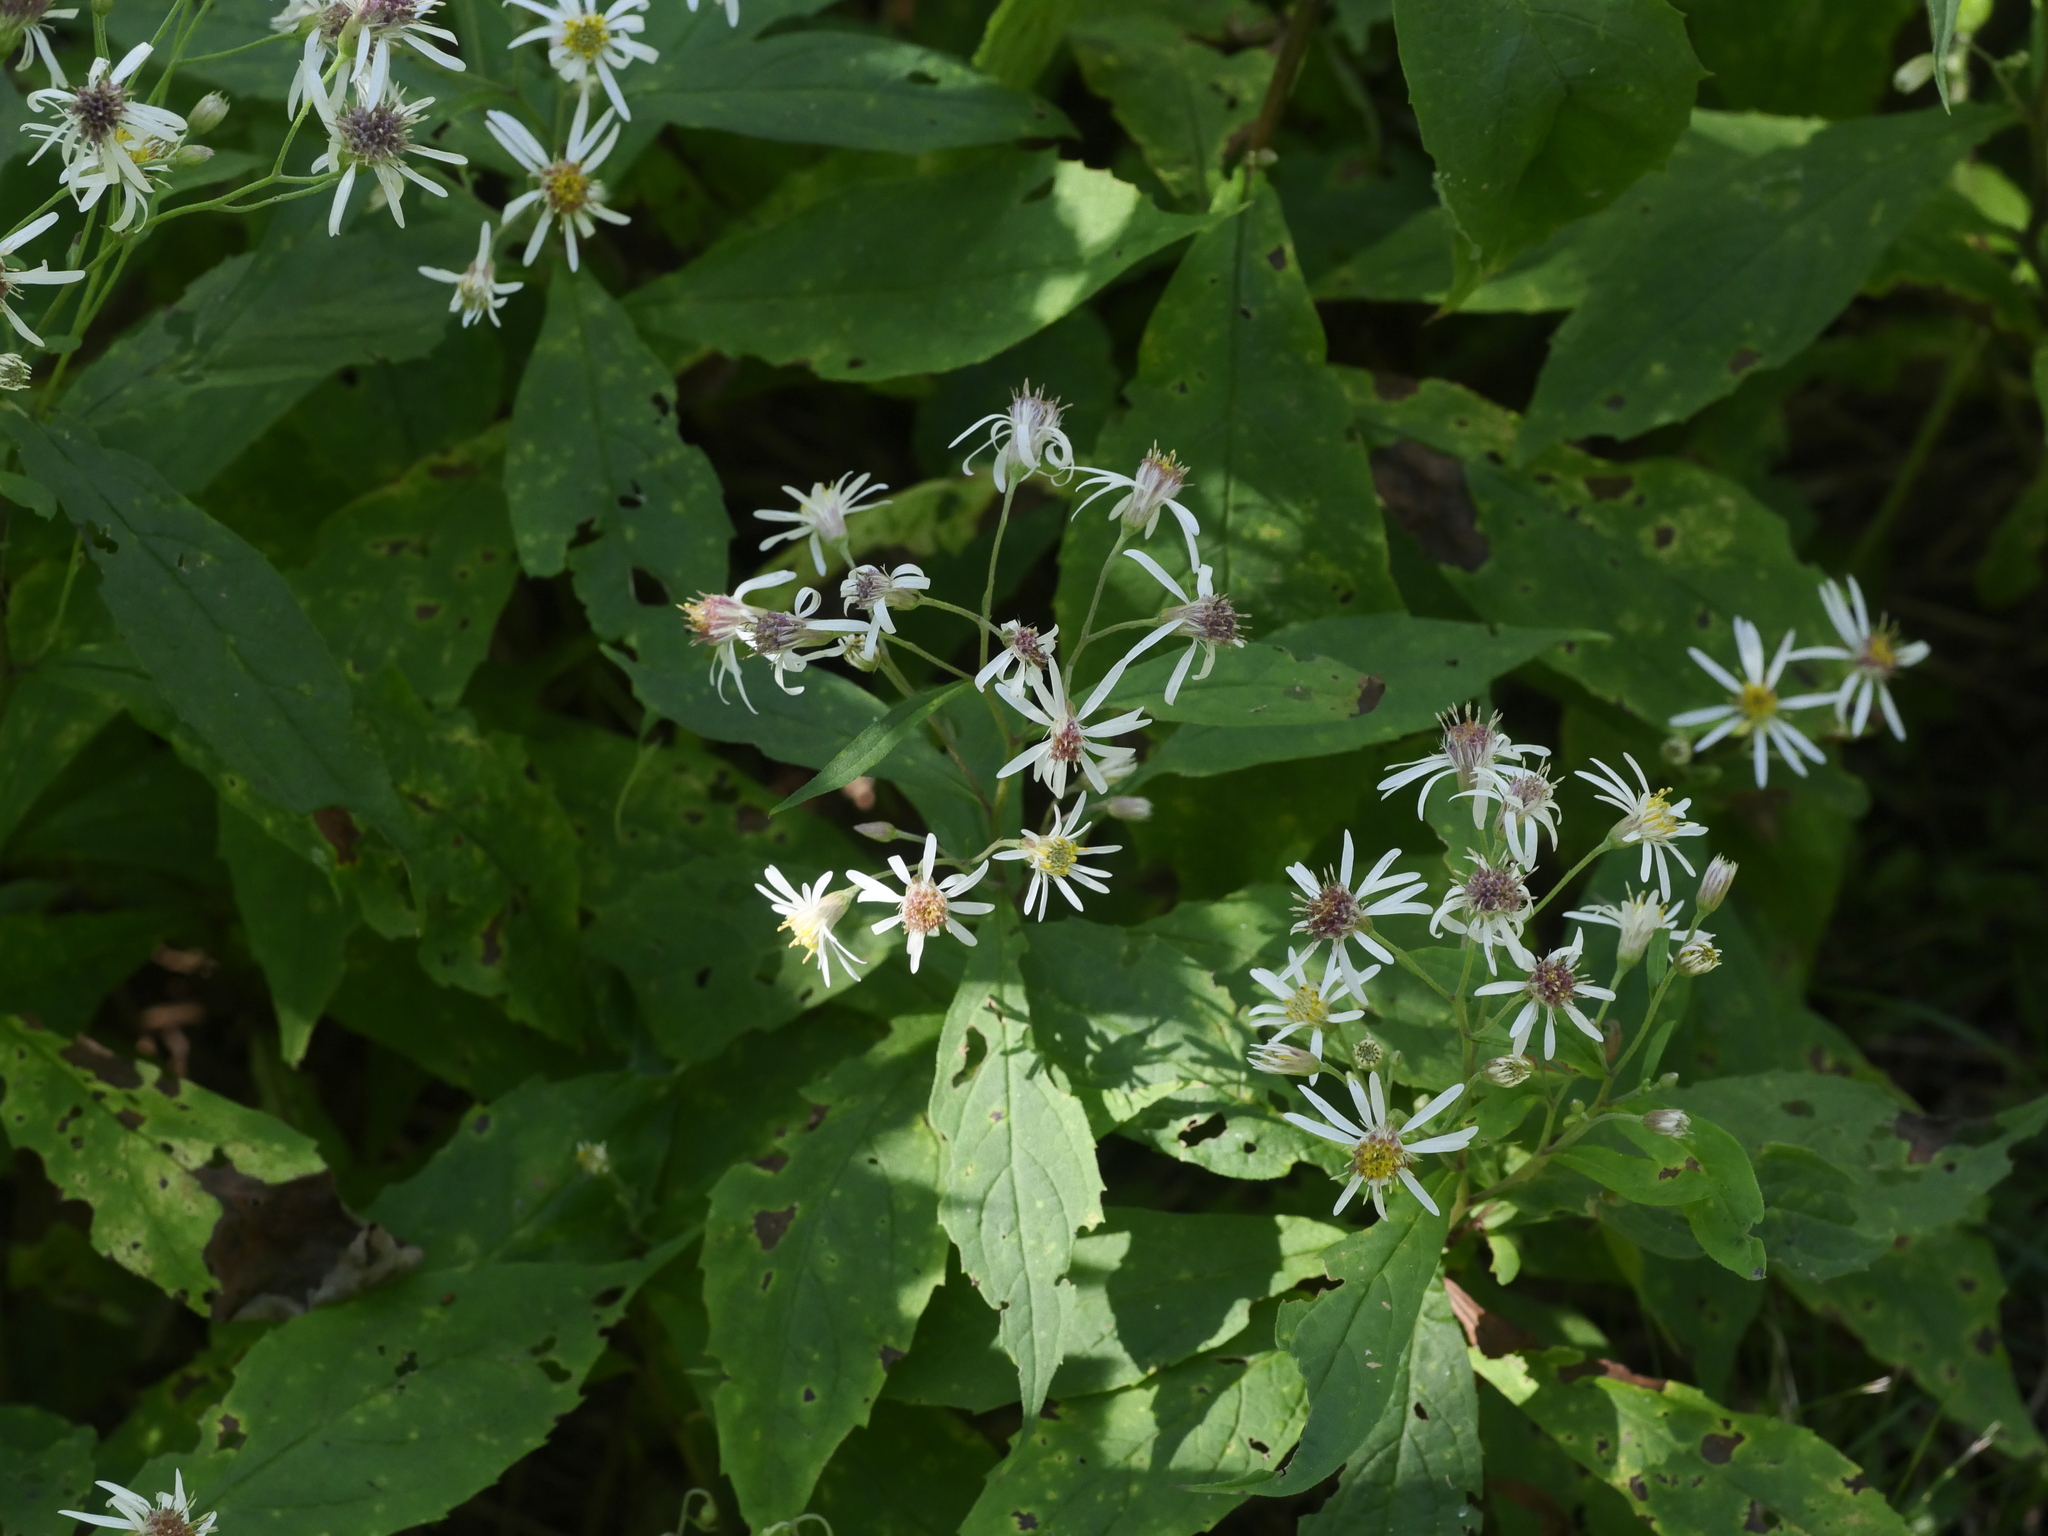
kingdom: Plantae
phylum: Tracheophyta
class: Magnoliopsida
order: Asterales
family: Asteraceae
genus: Oclemena
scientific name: Oclemena acuminata
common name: Mountain aster
